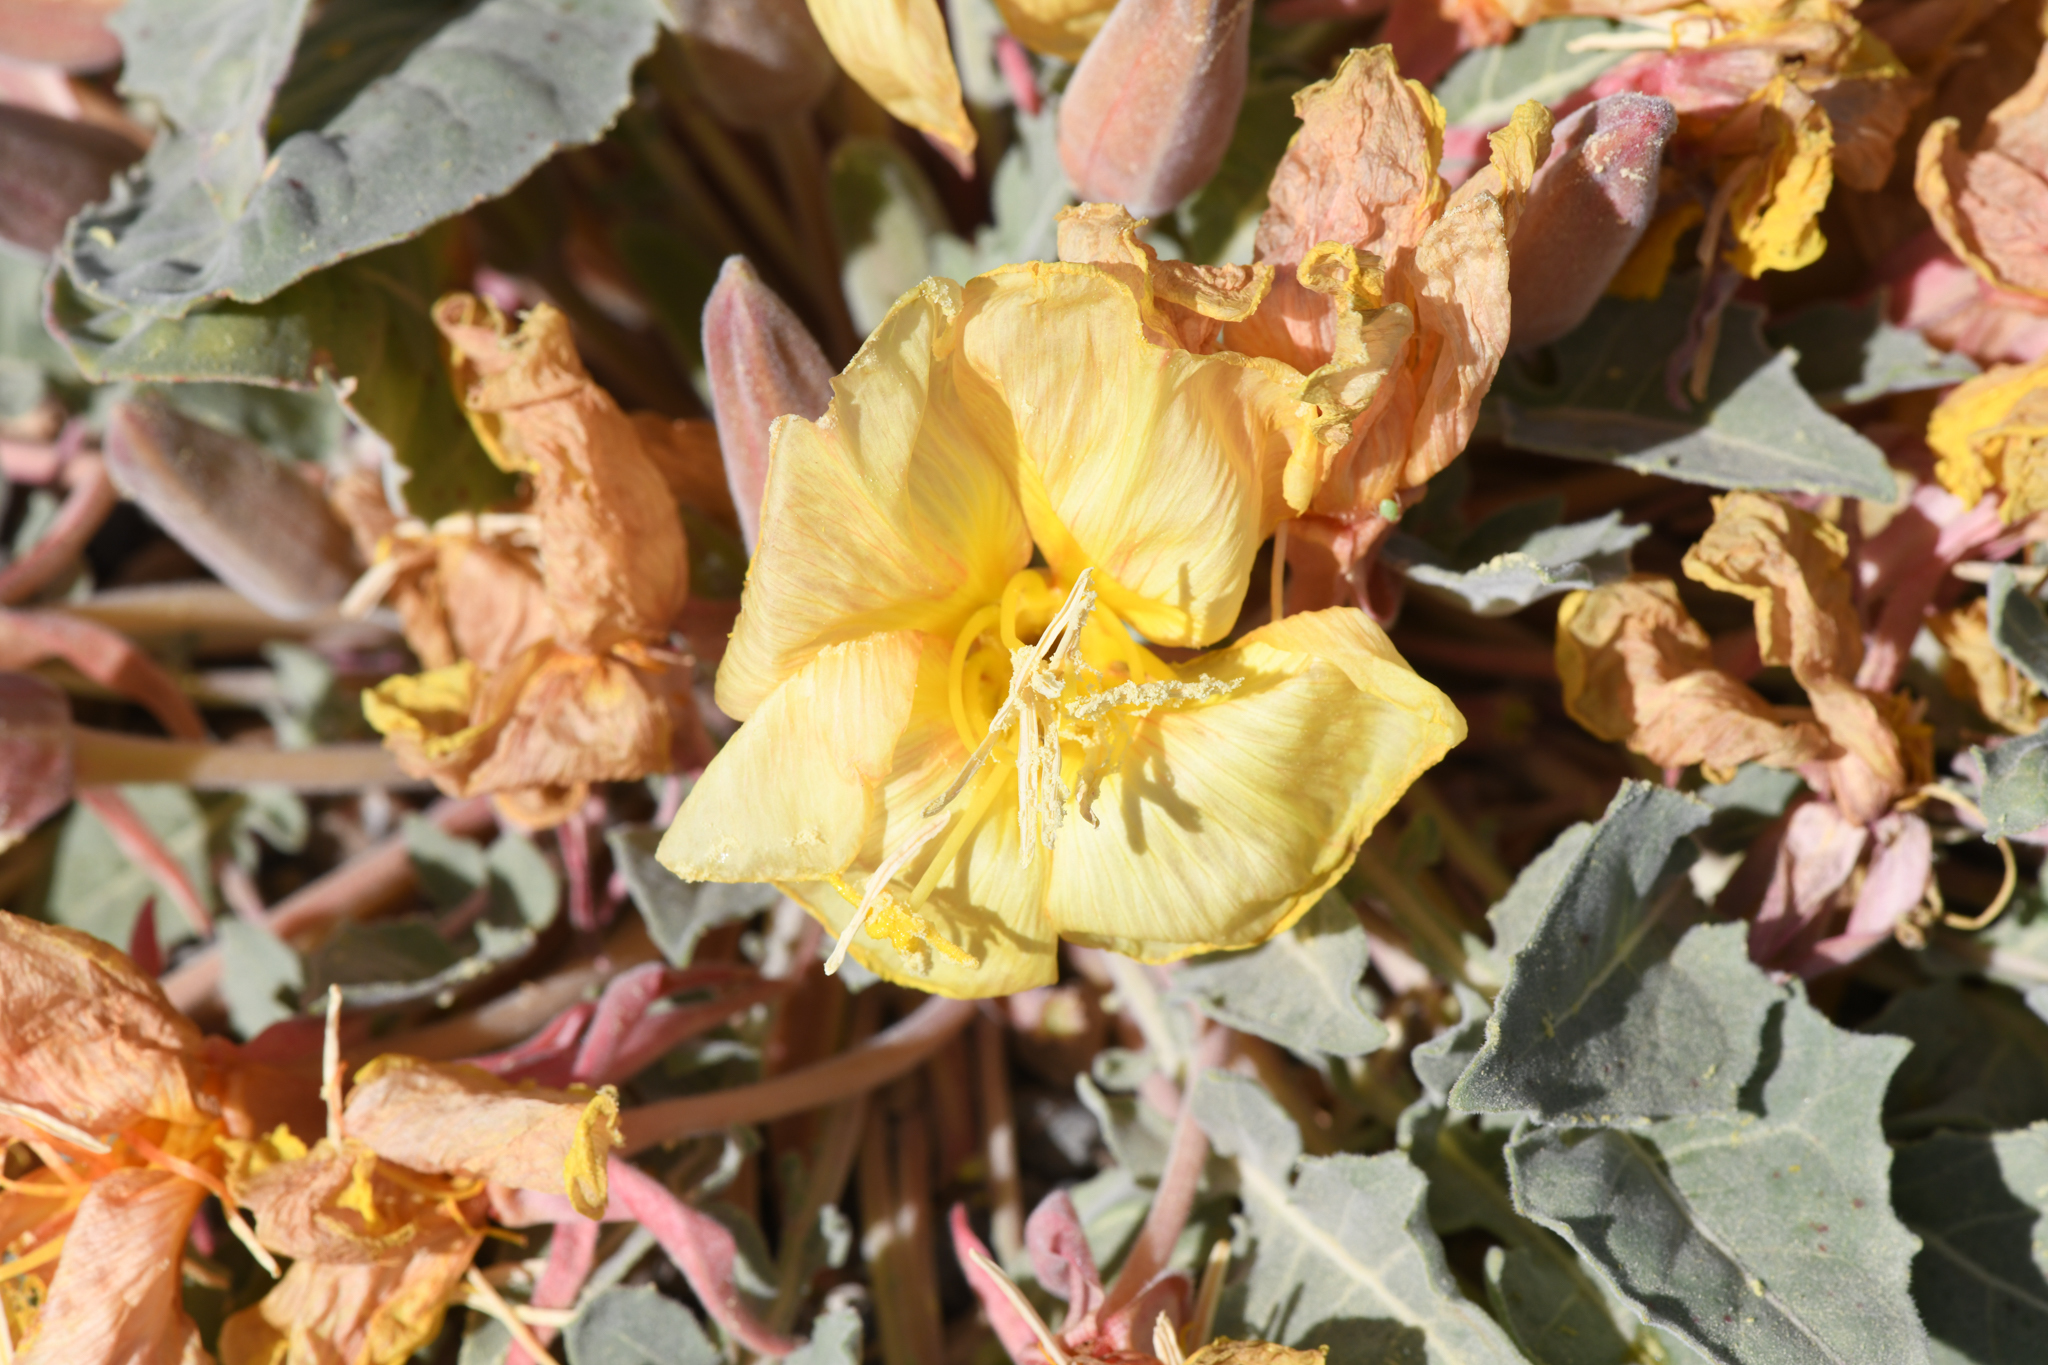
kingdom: Plantae
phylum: Tracheophyta
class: Magnoliopsida
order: Myrtales
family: Onagraceae
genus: Oenothera
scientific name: Oenothera xylocarpa
